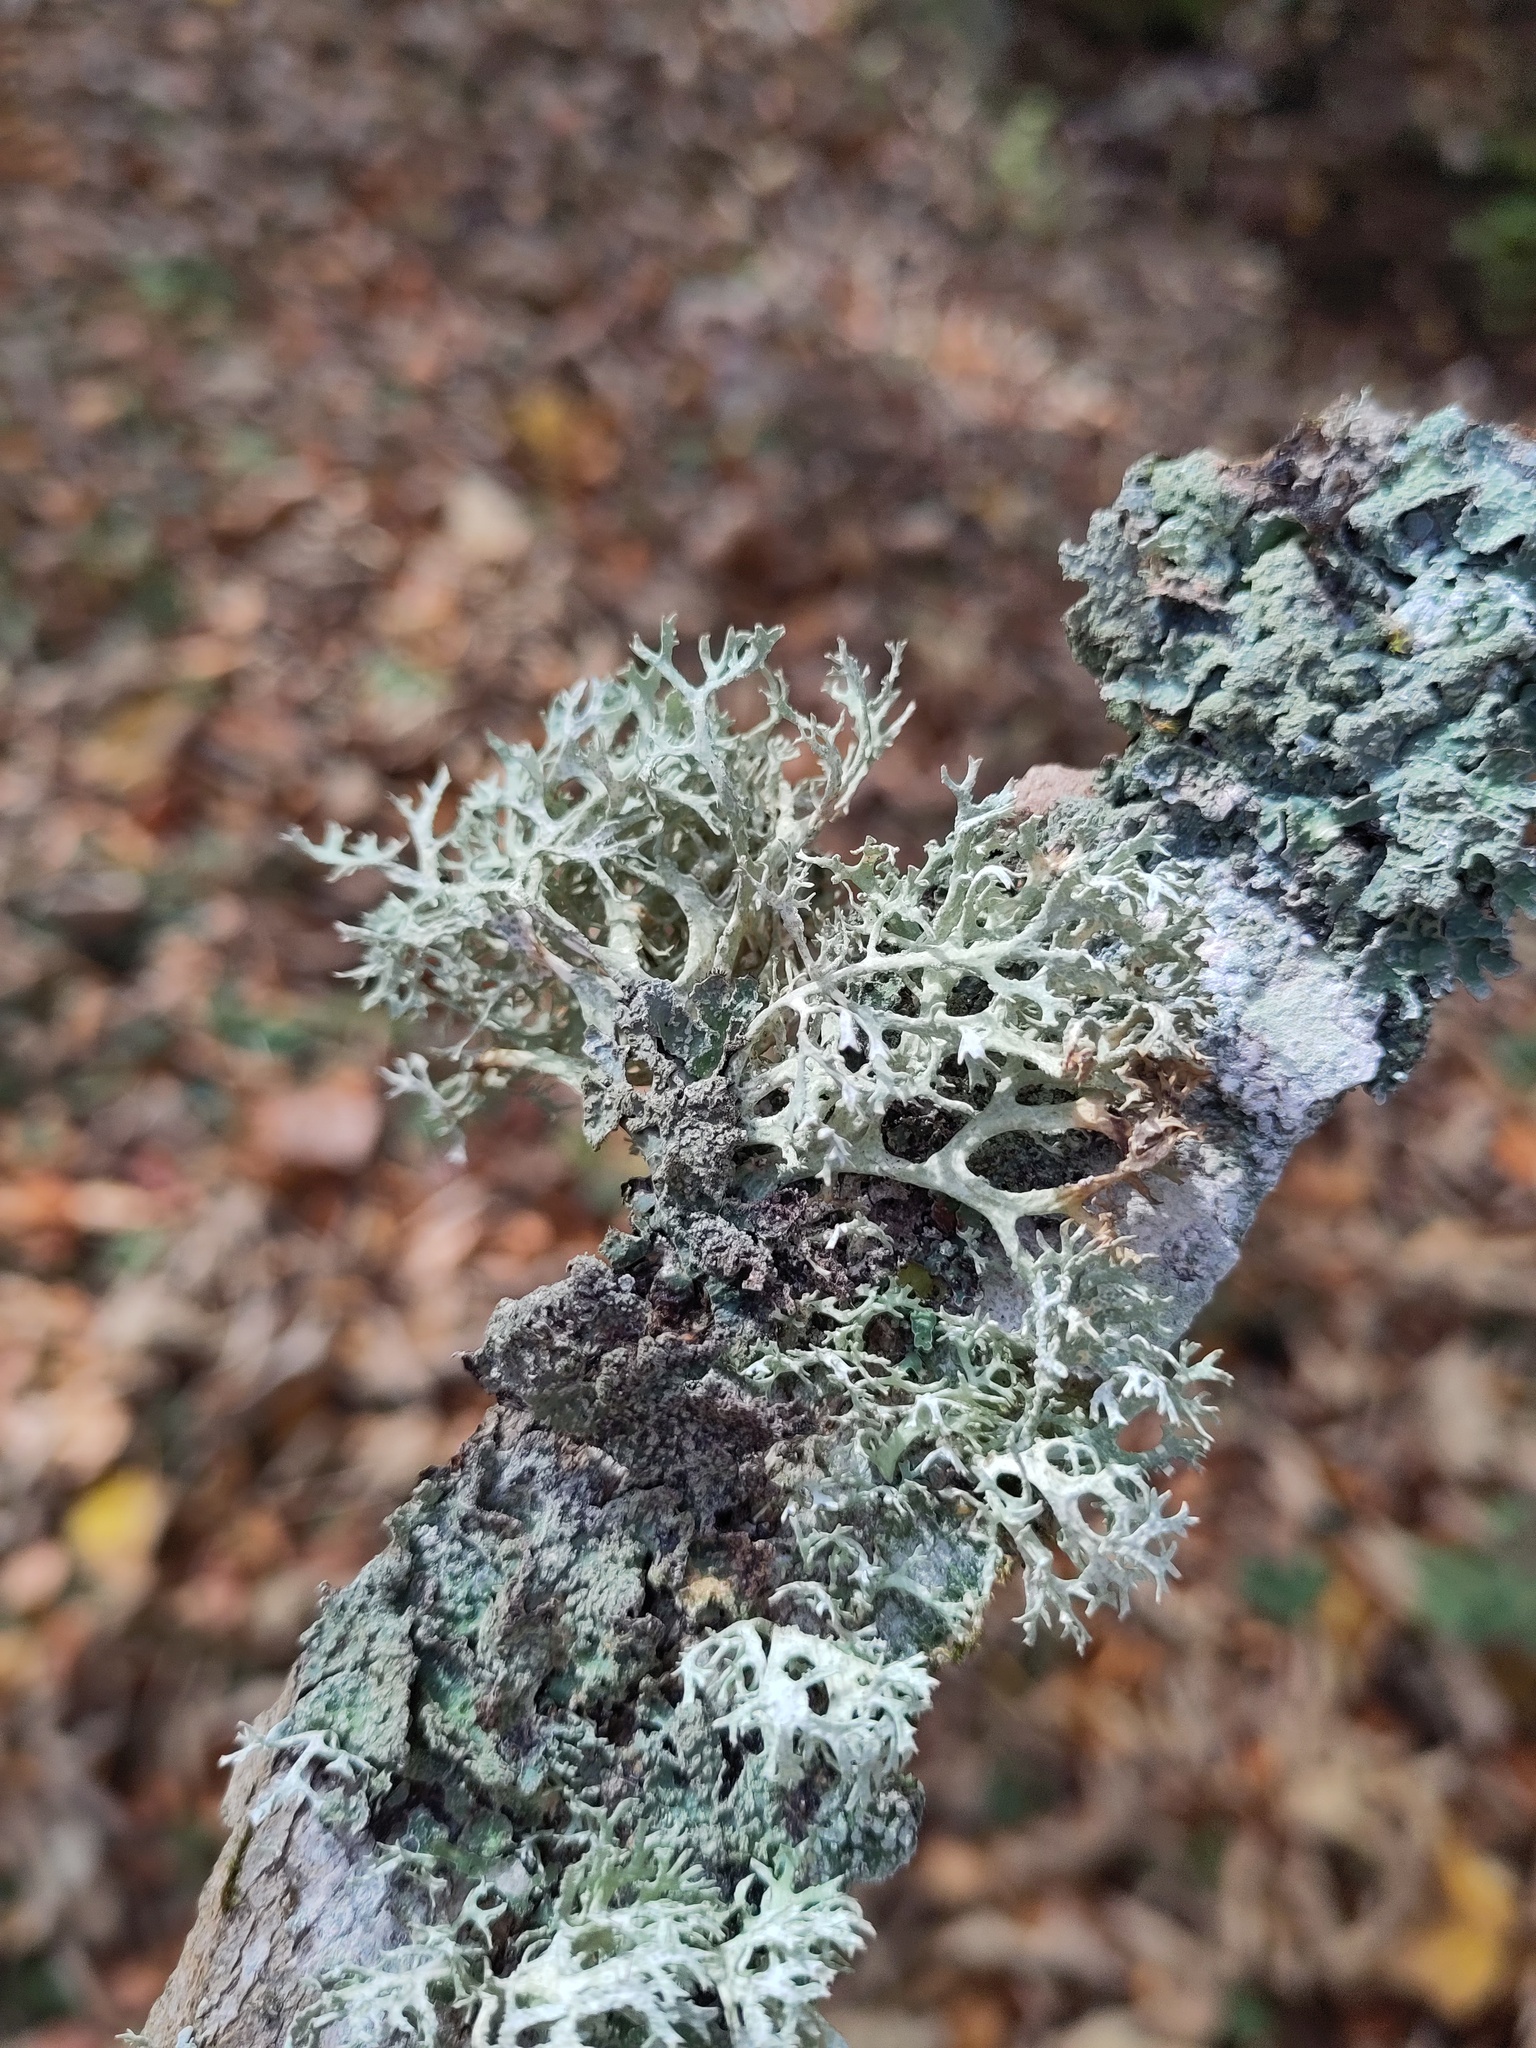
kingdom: Fungi
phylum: Ascomycota
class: Lecanoromycetes
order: Lecanorales
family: Parmeliaceae
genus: Evernia
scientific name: Evernia prunastri
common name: Oak moss
